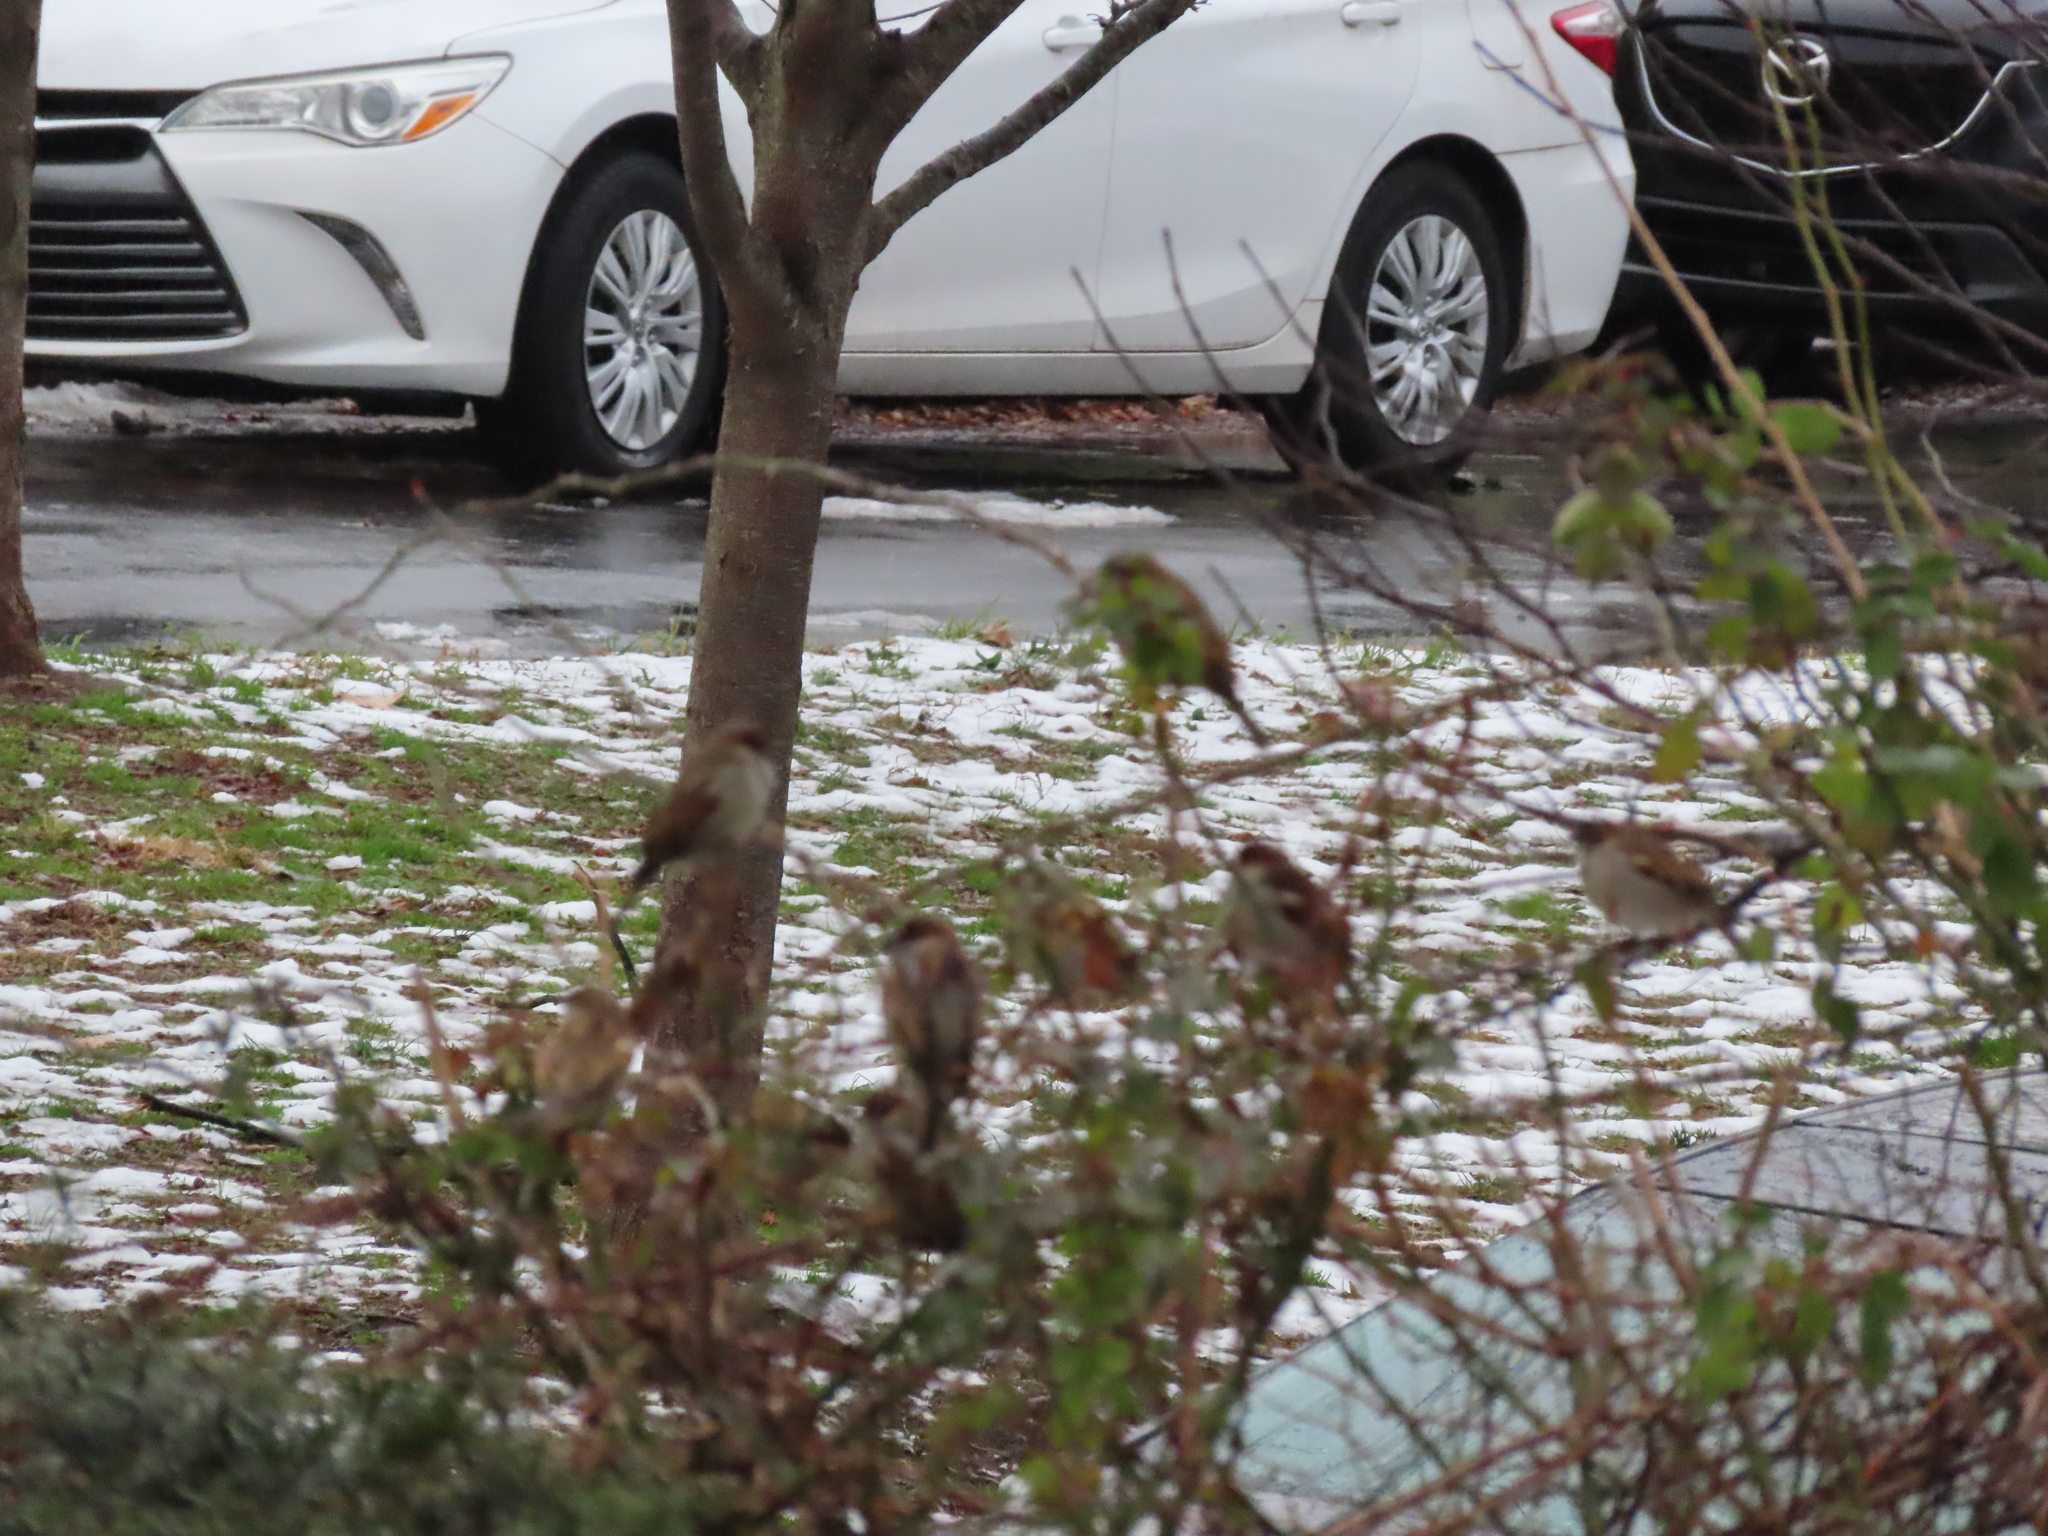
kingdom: Animalia
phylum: Chordata
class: Aves
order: Passeriformes
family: Passeridae
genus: Passer
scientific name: Passer domesticus
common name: House sparrow
